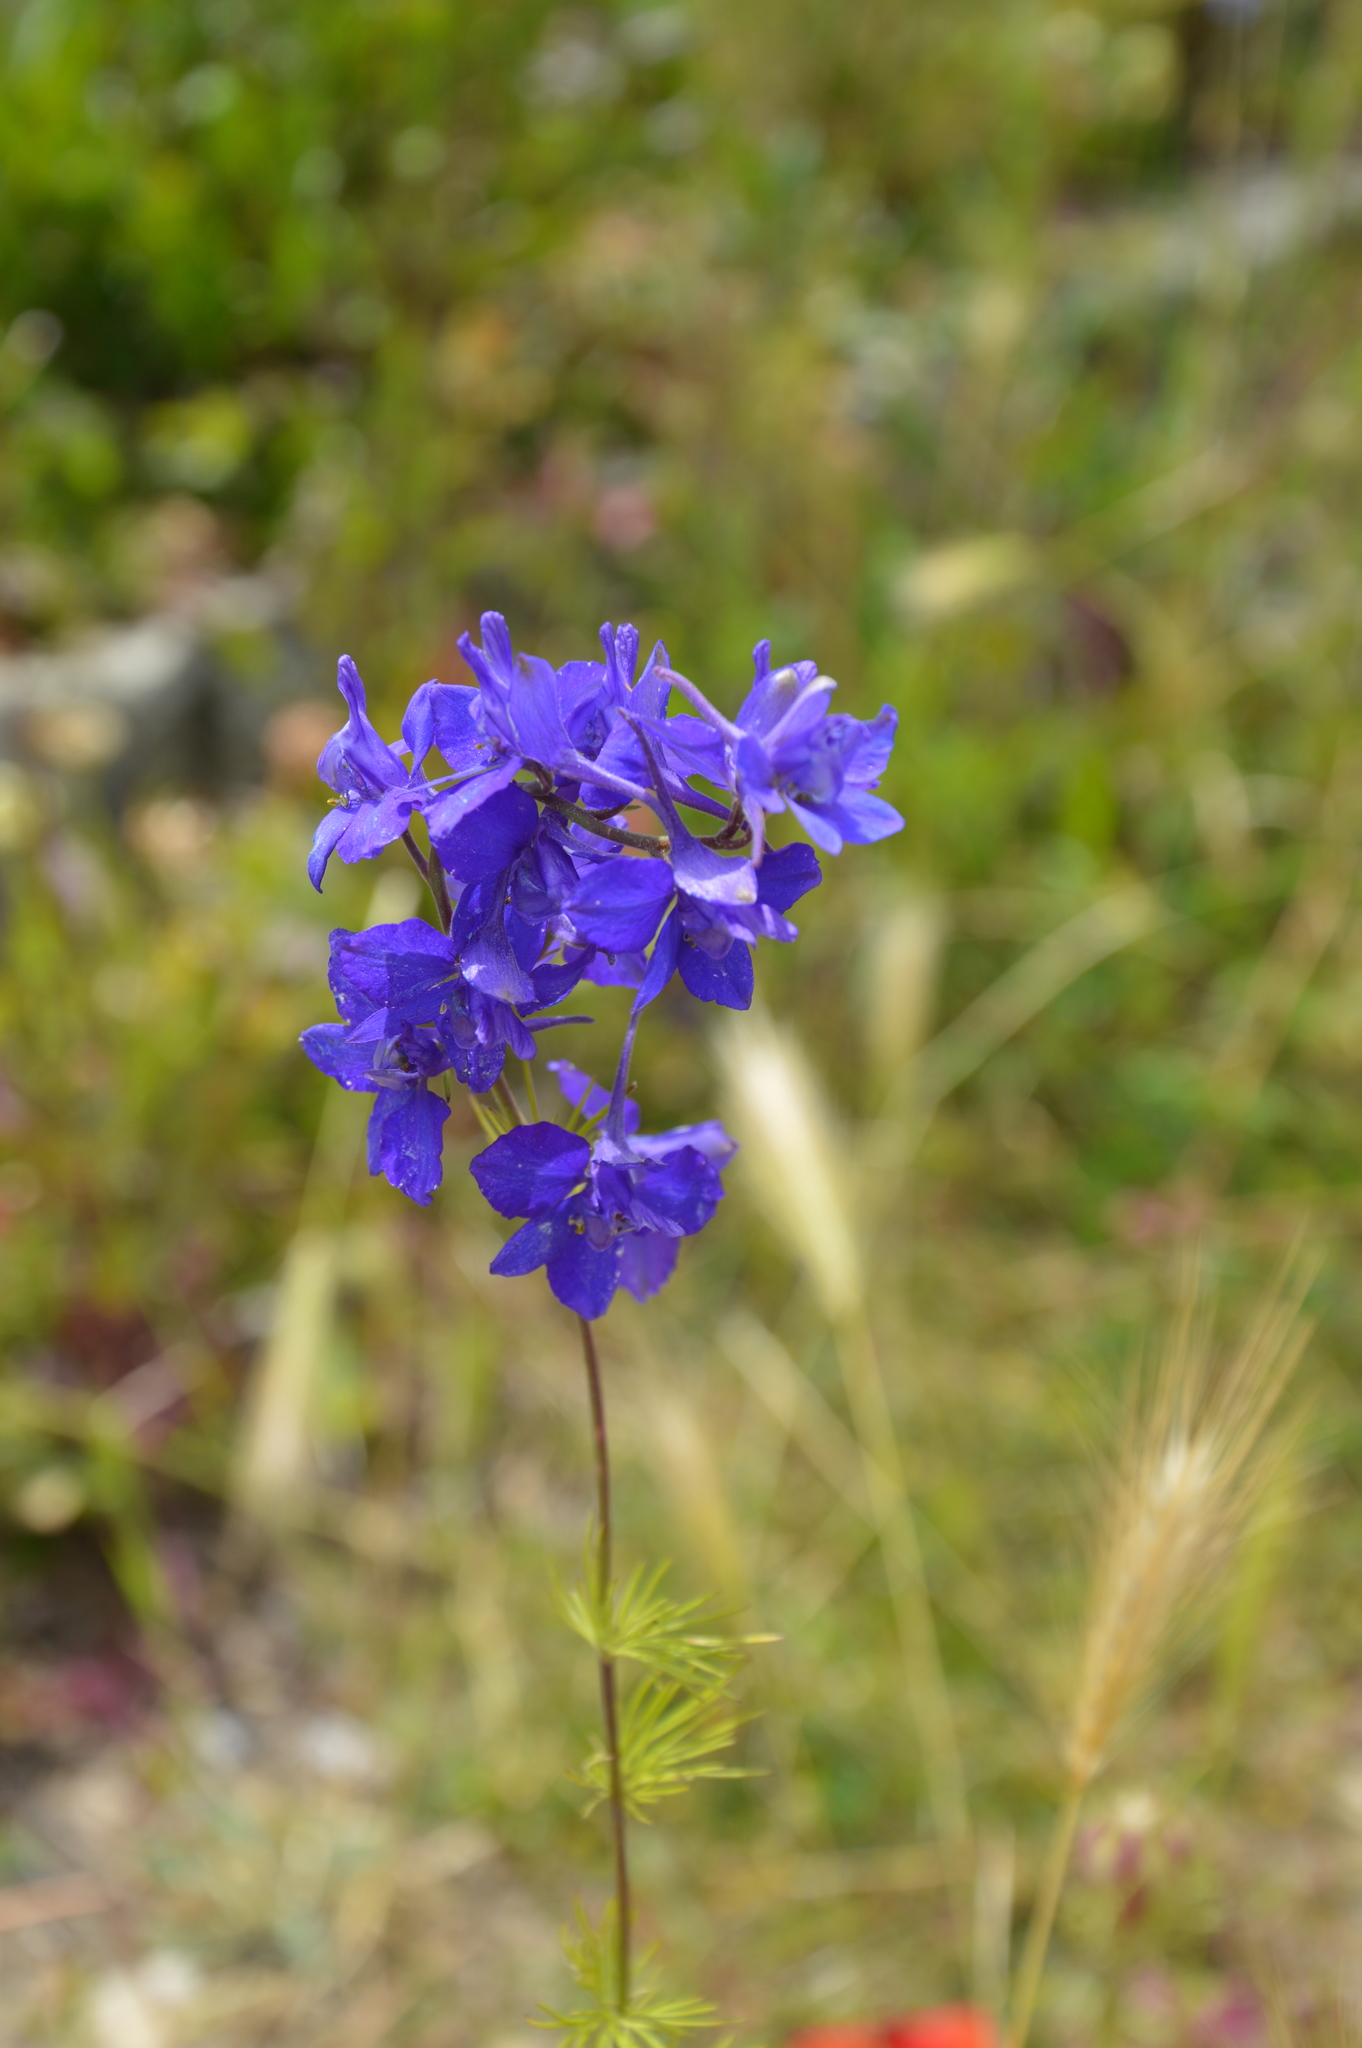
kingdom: Plantae
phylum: Tracheophyta
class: Magnoliopsida
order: Ranunculales
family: Ranunculaceae
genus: Delphinium
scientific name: Delphinium ajacis
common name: Doubtful knight's-spur
